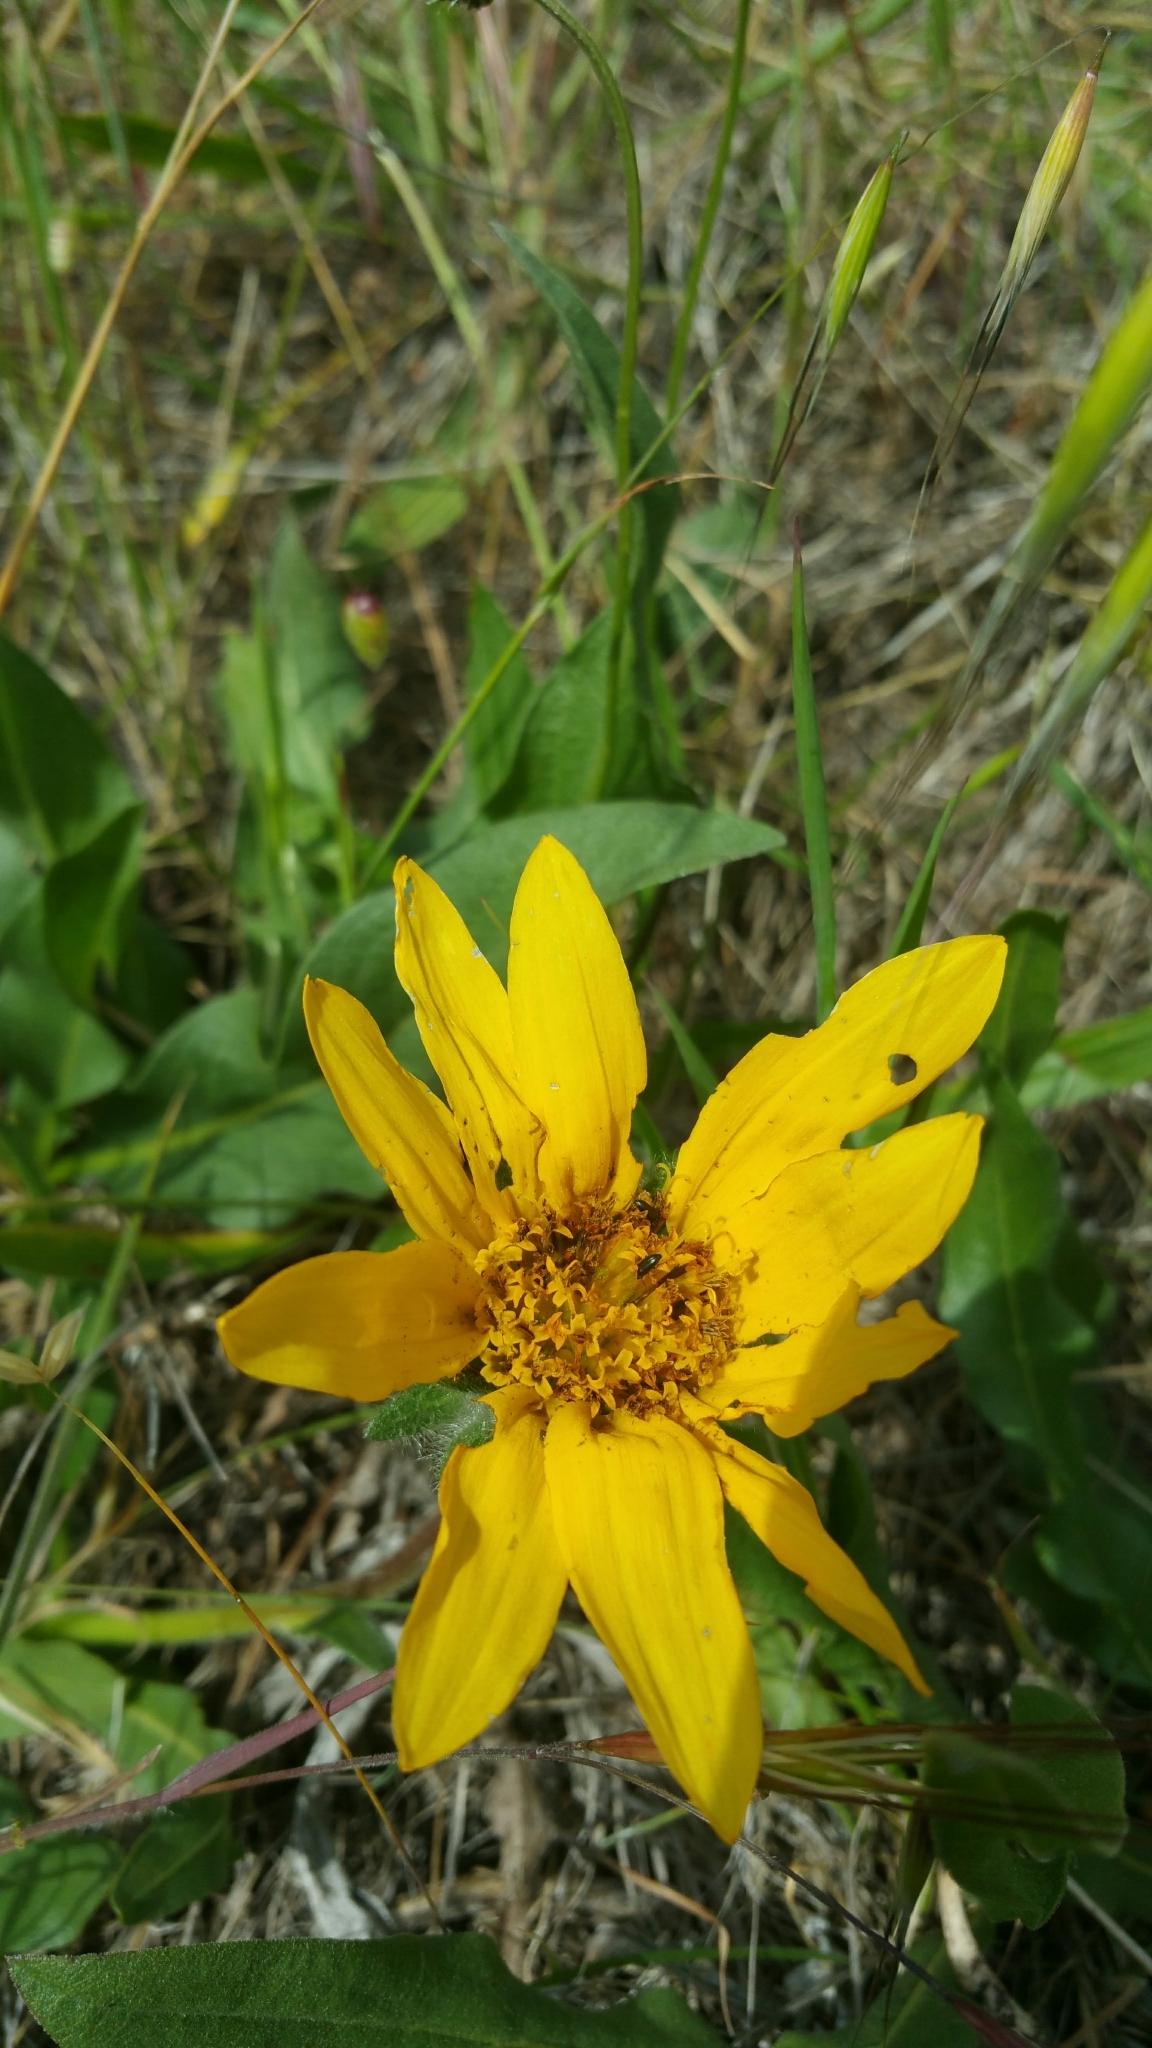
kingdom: Plantae
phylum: Tracheophyta
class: Magnoliopsida
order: Asterales
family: Asteraceae
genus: Wyethia
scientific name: Wyethia angustifolia
